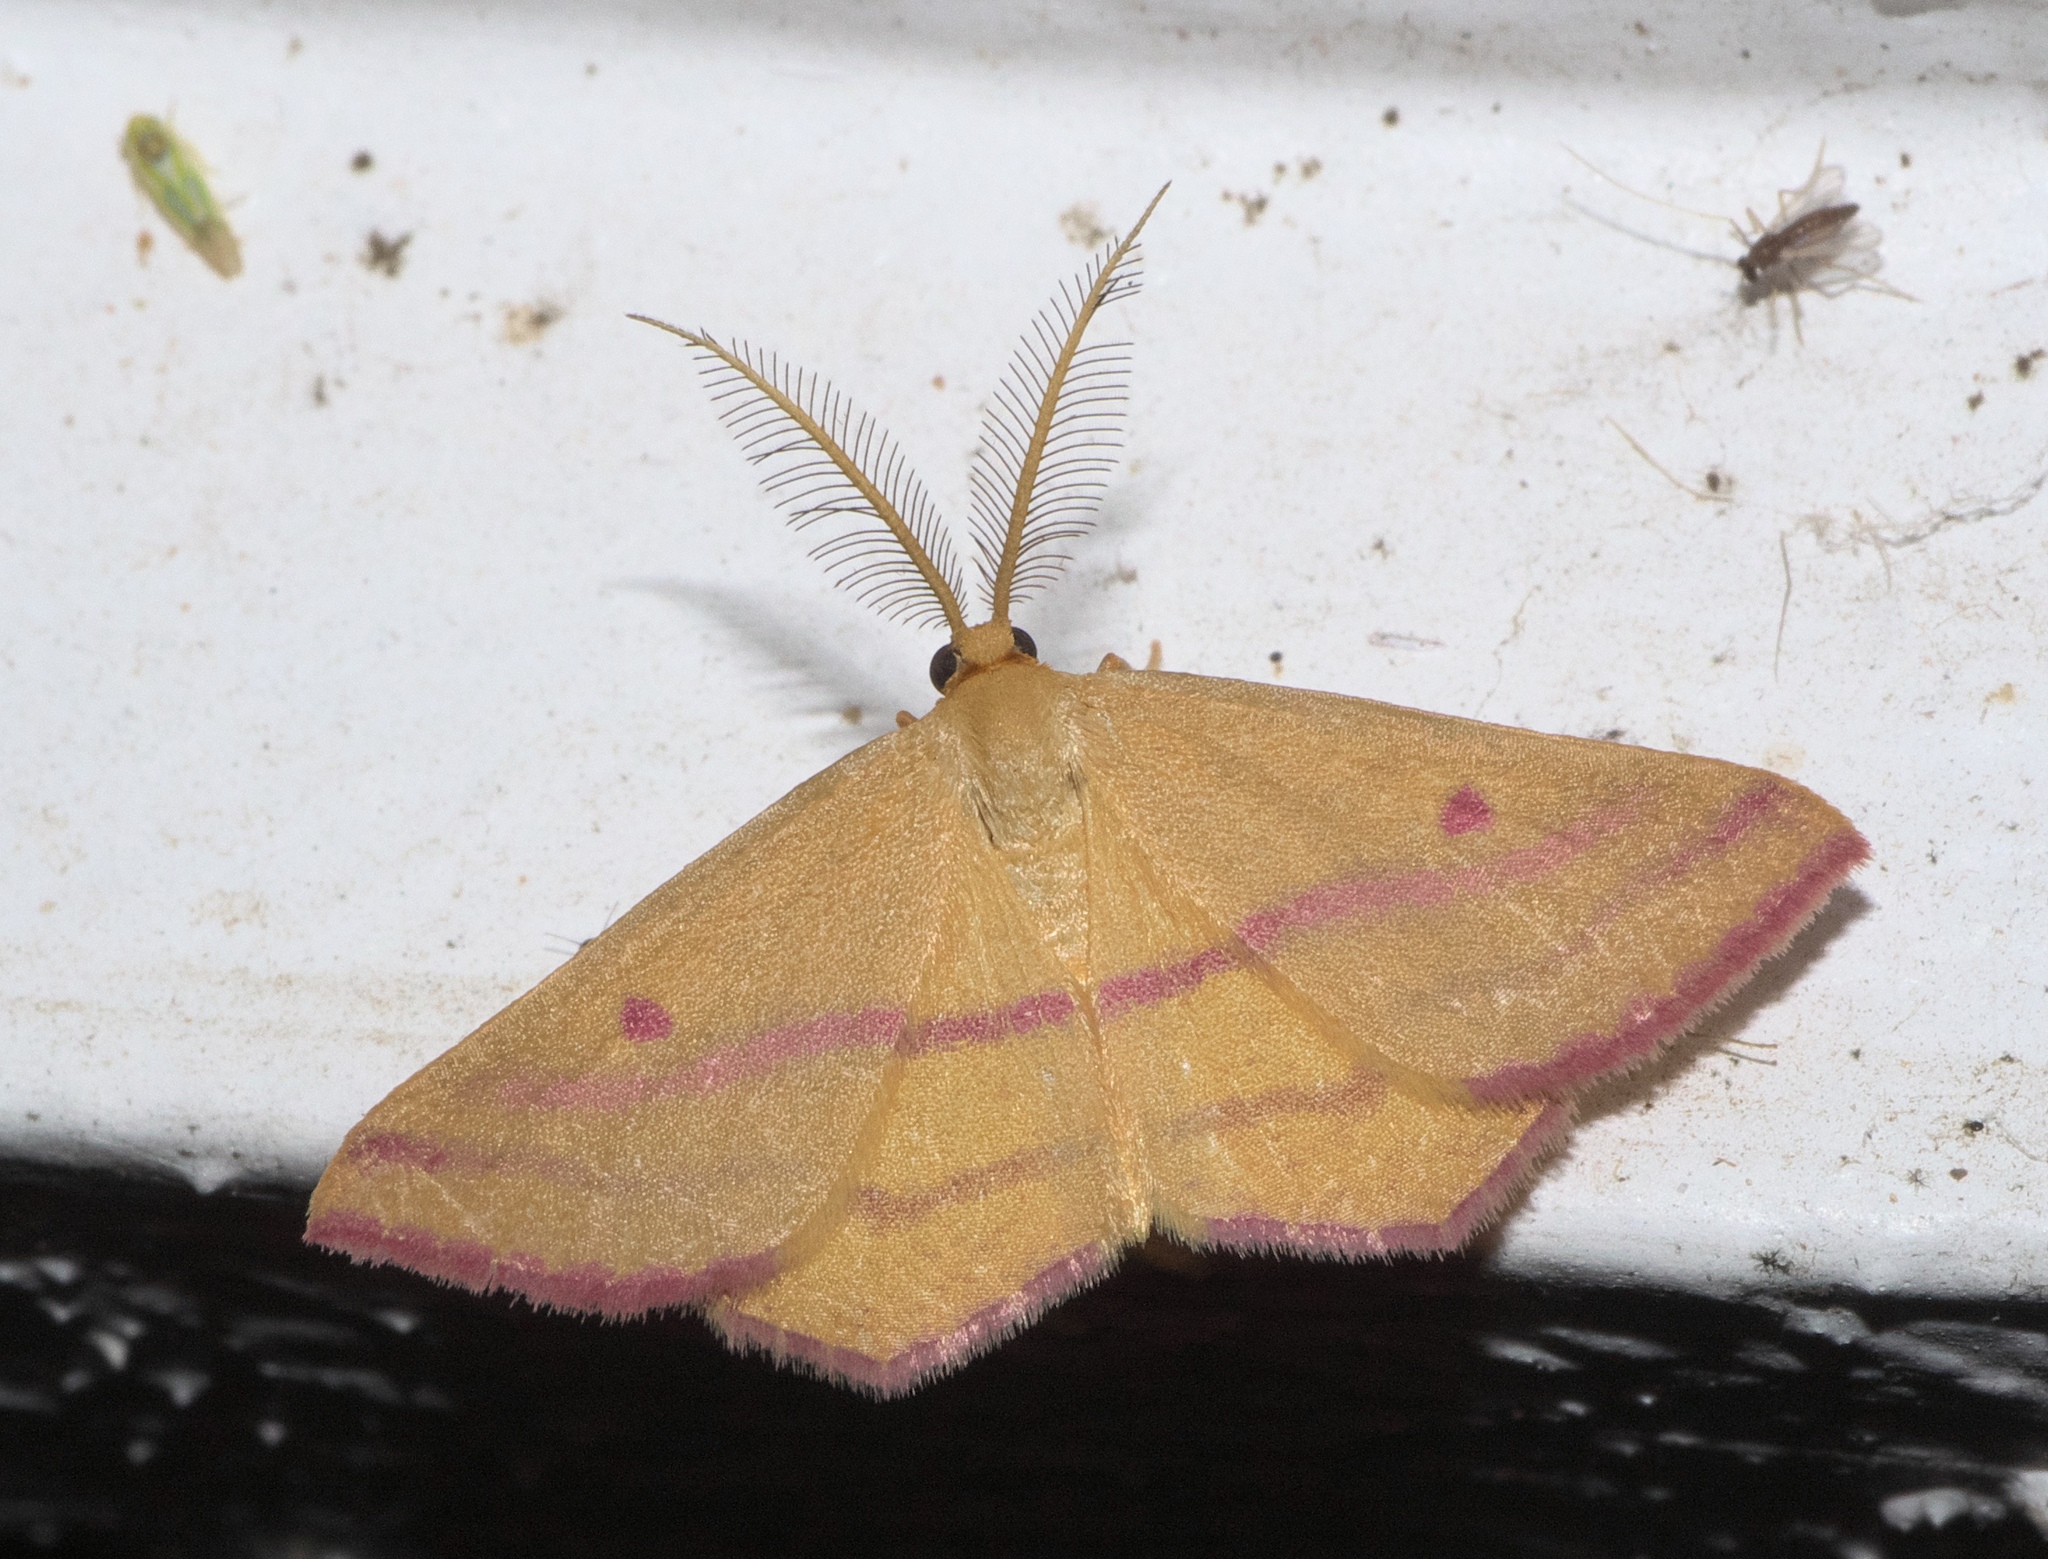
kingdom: Animalia
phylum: Arthropoda
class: Insecta
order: Lepidoptera
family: Geometridae
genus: Haematopis
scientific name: Haematopis grataria
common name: Chickweed geometer
